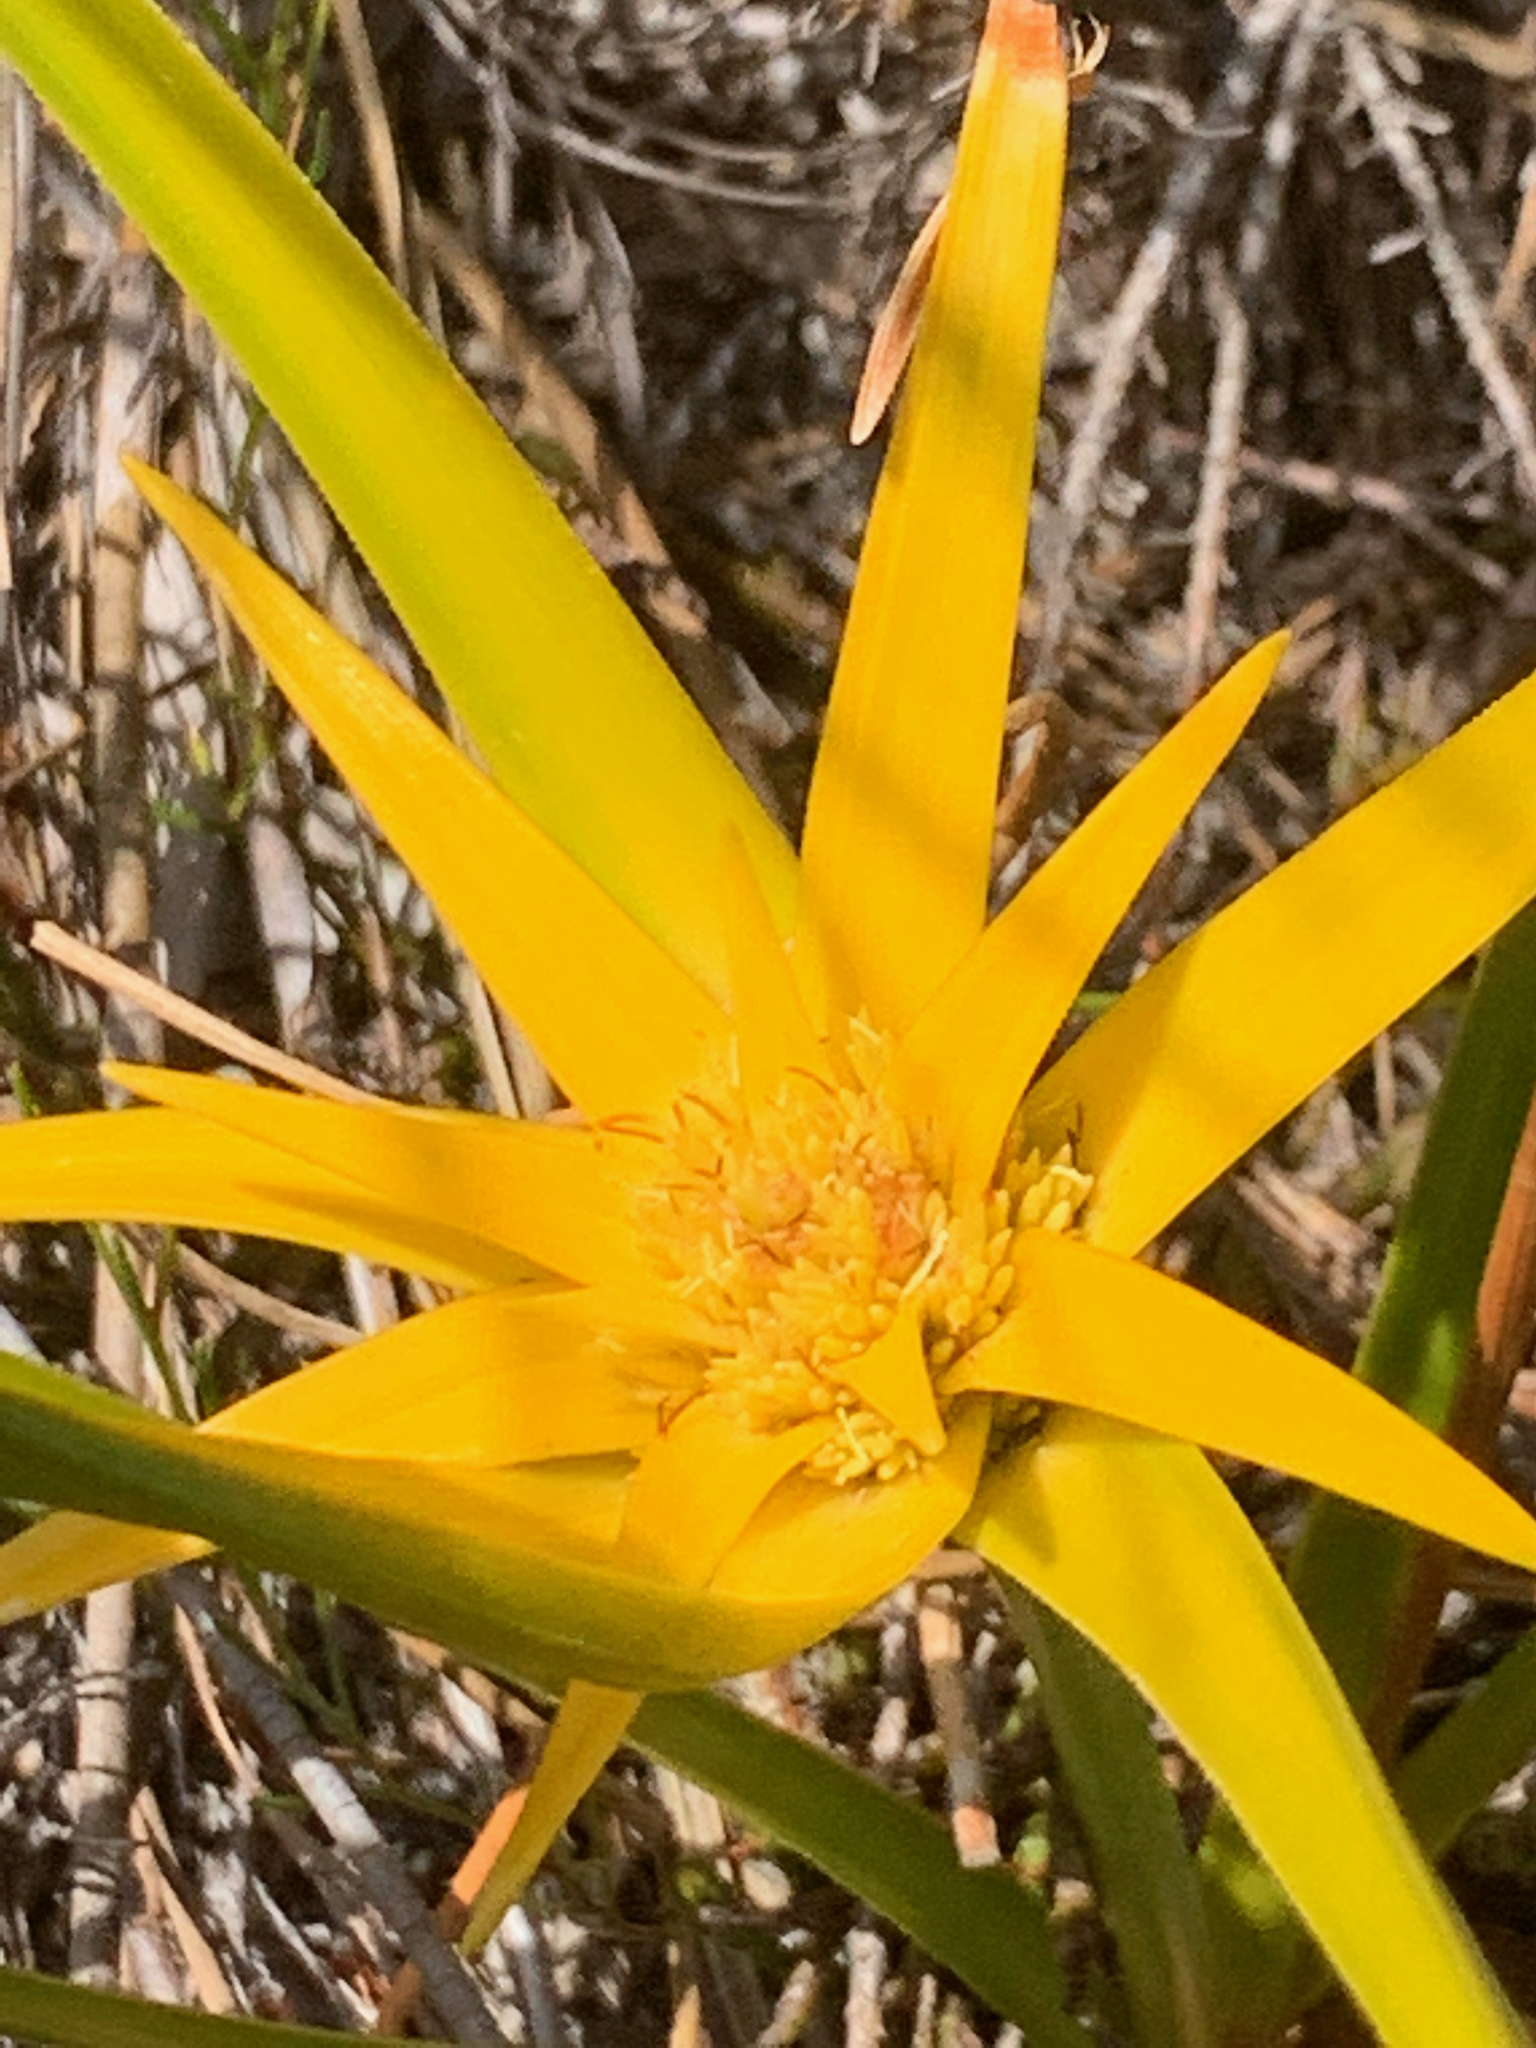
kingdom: Plantae
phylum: Tracheophyta
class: Liliopsida
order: Poales
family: Cyperaceae
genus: Ficinia
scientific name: Ficinia radiata
